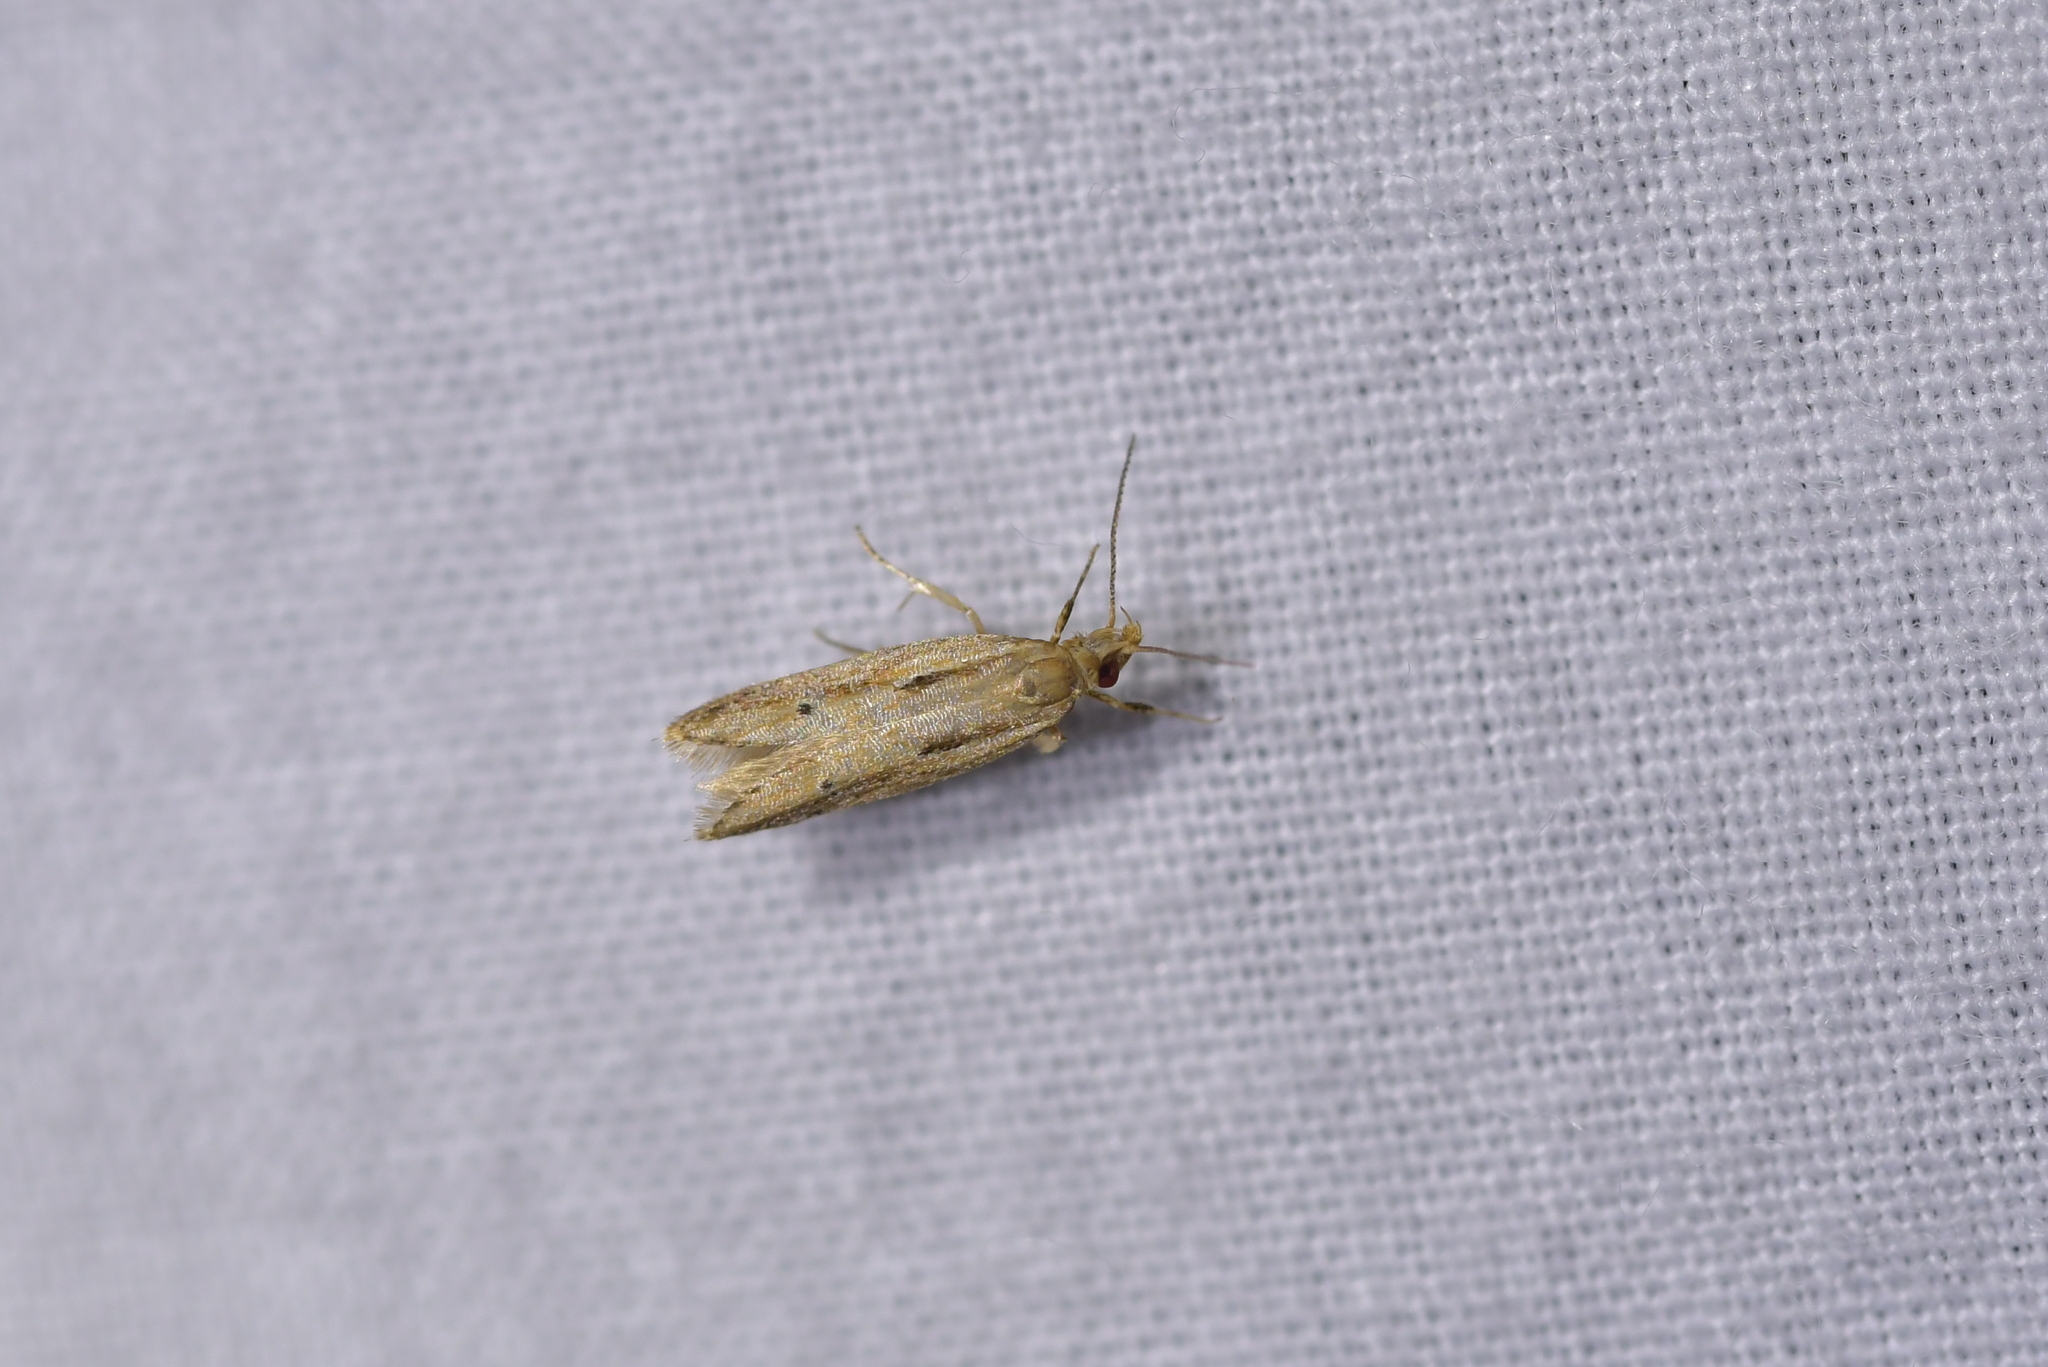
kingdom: Animalia
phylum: Arthropoda
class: Insecta
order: Lepidoptera
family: Depressariidae
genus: Eutorna
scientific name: Eutorna symmorpha
